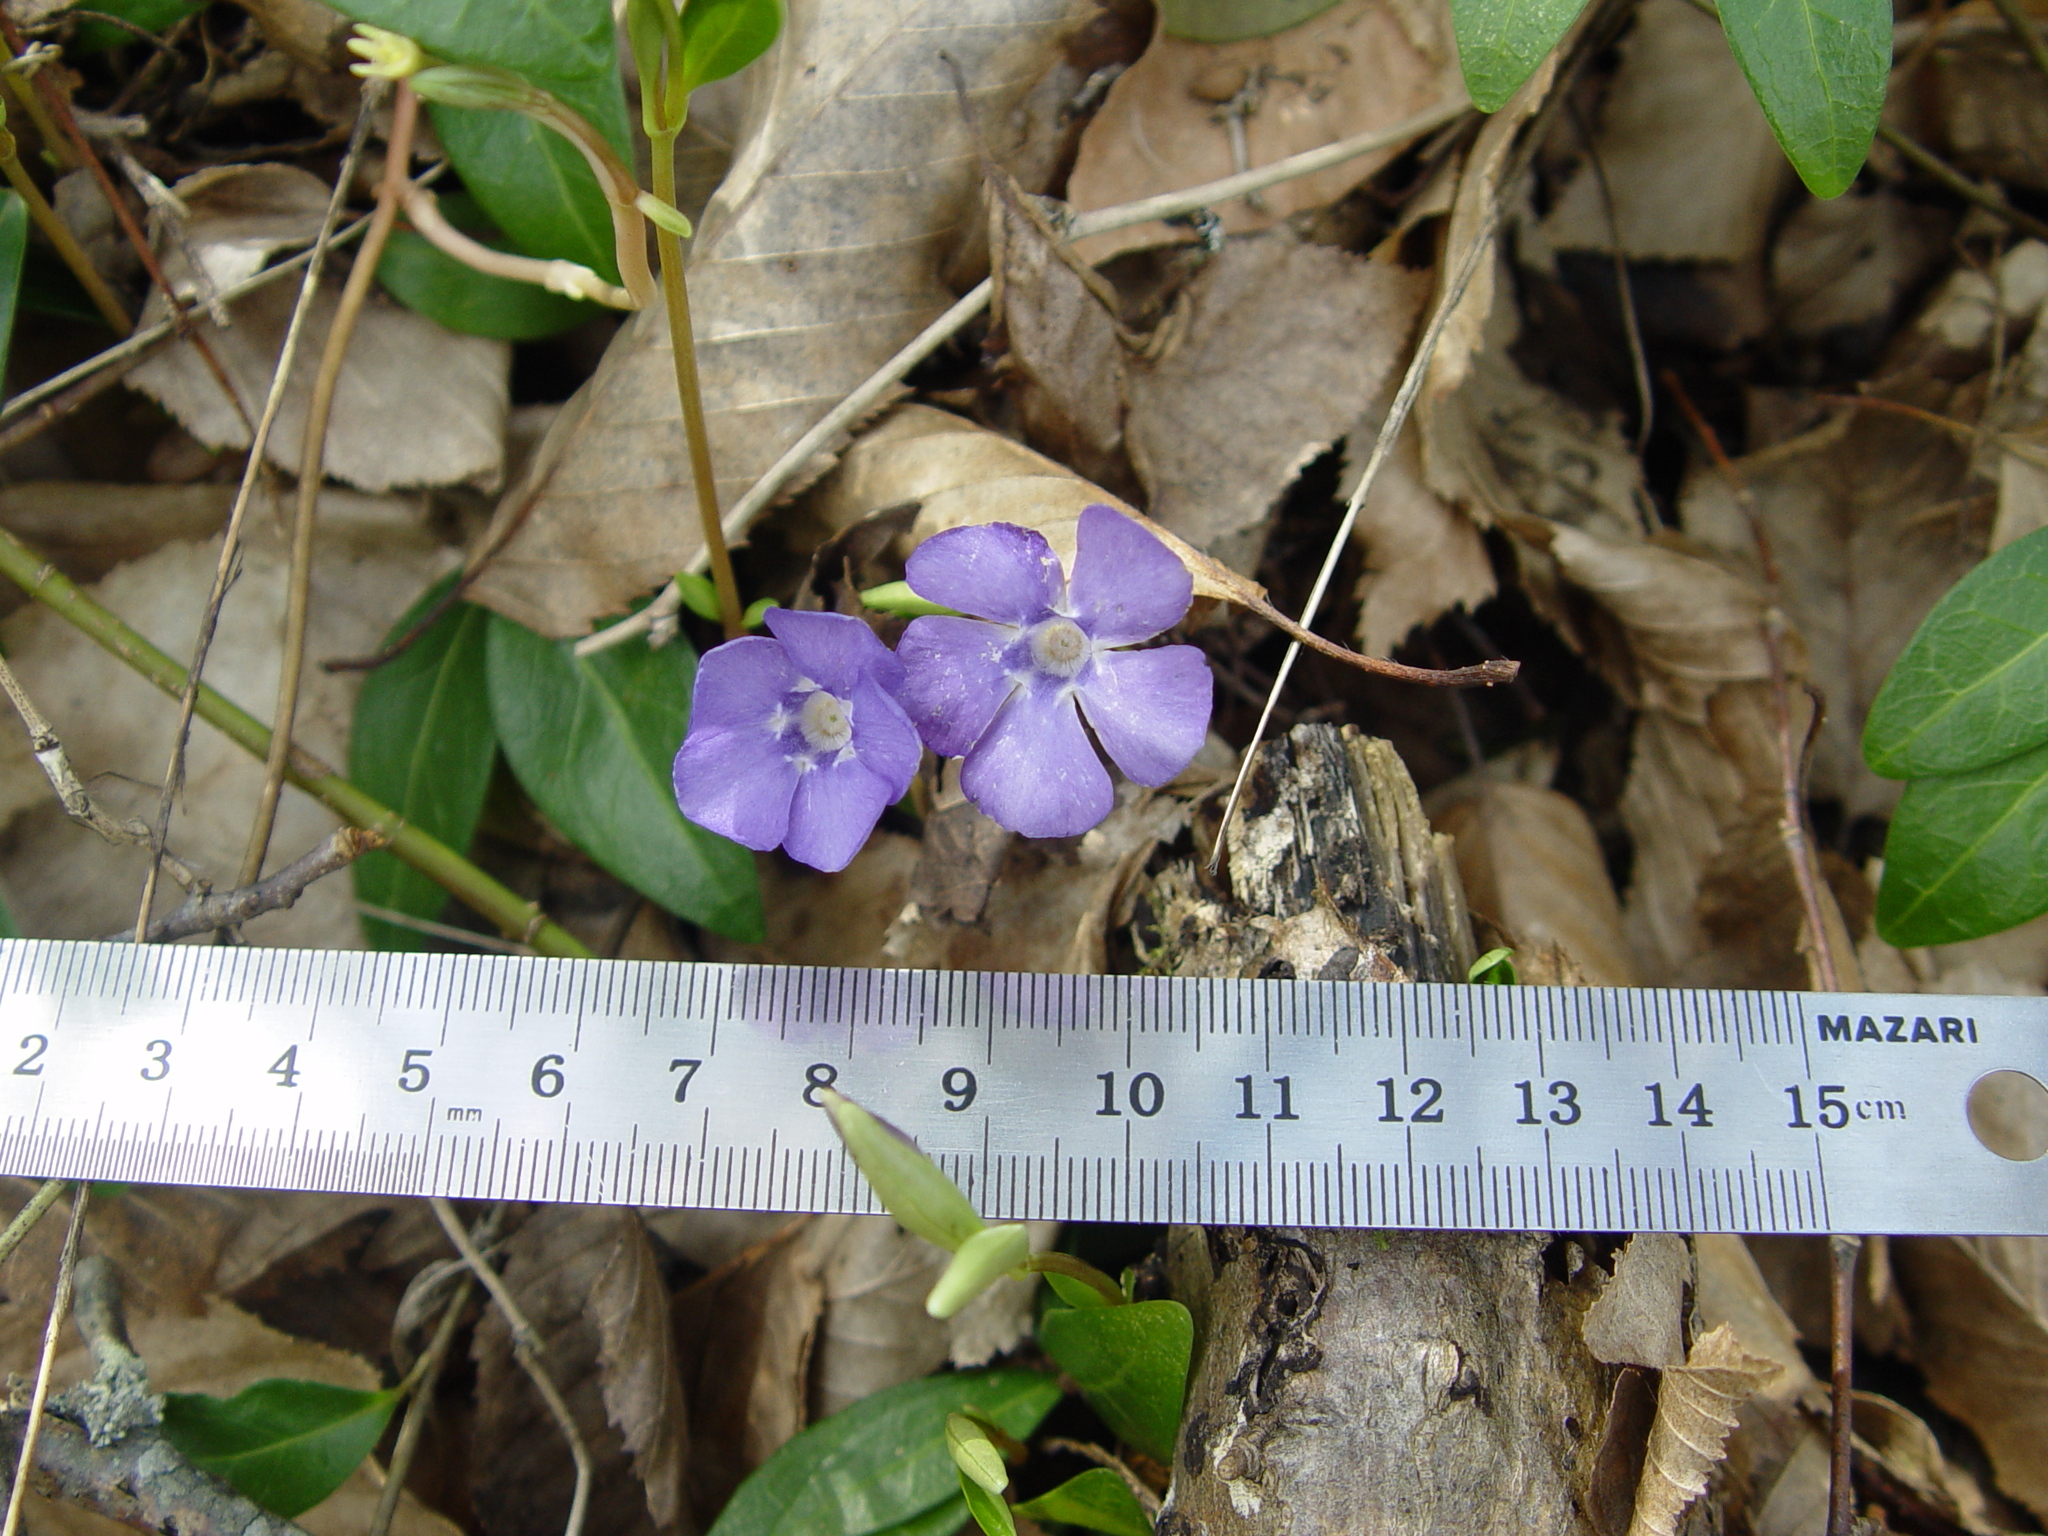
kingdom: Plantae
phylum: Tracheophyta
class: Magnoliopsida
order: Gentianales
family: Apocynaceae
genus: Vinca
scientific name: Vinca minor
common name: Lesser periwinkle
